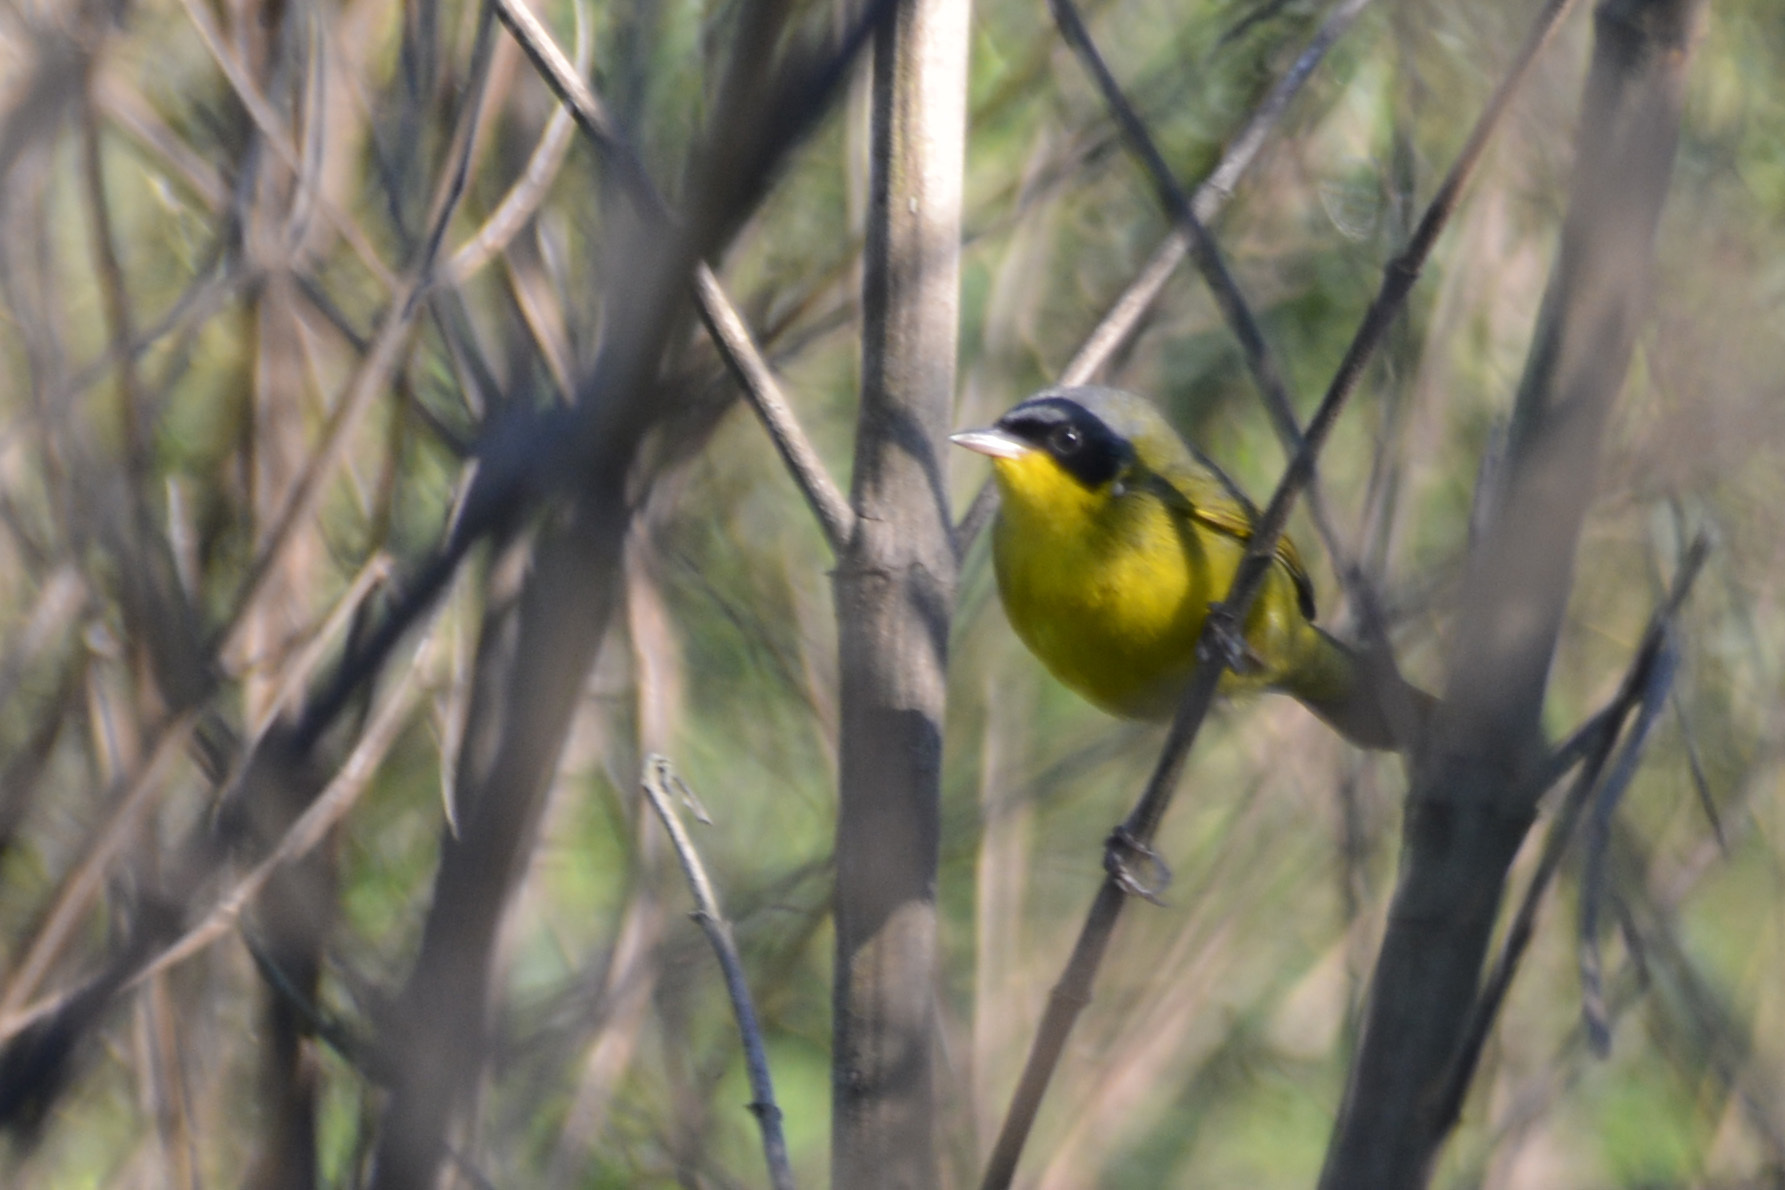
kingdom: Animalia
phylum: Chordata
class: Aves
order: Passeriformes
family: Parulidae
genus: Geothlypis
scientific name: Geothlypis velata
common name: Southern yellowthroat
